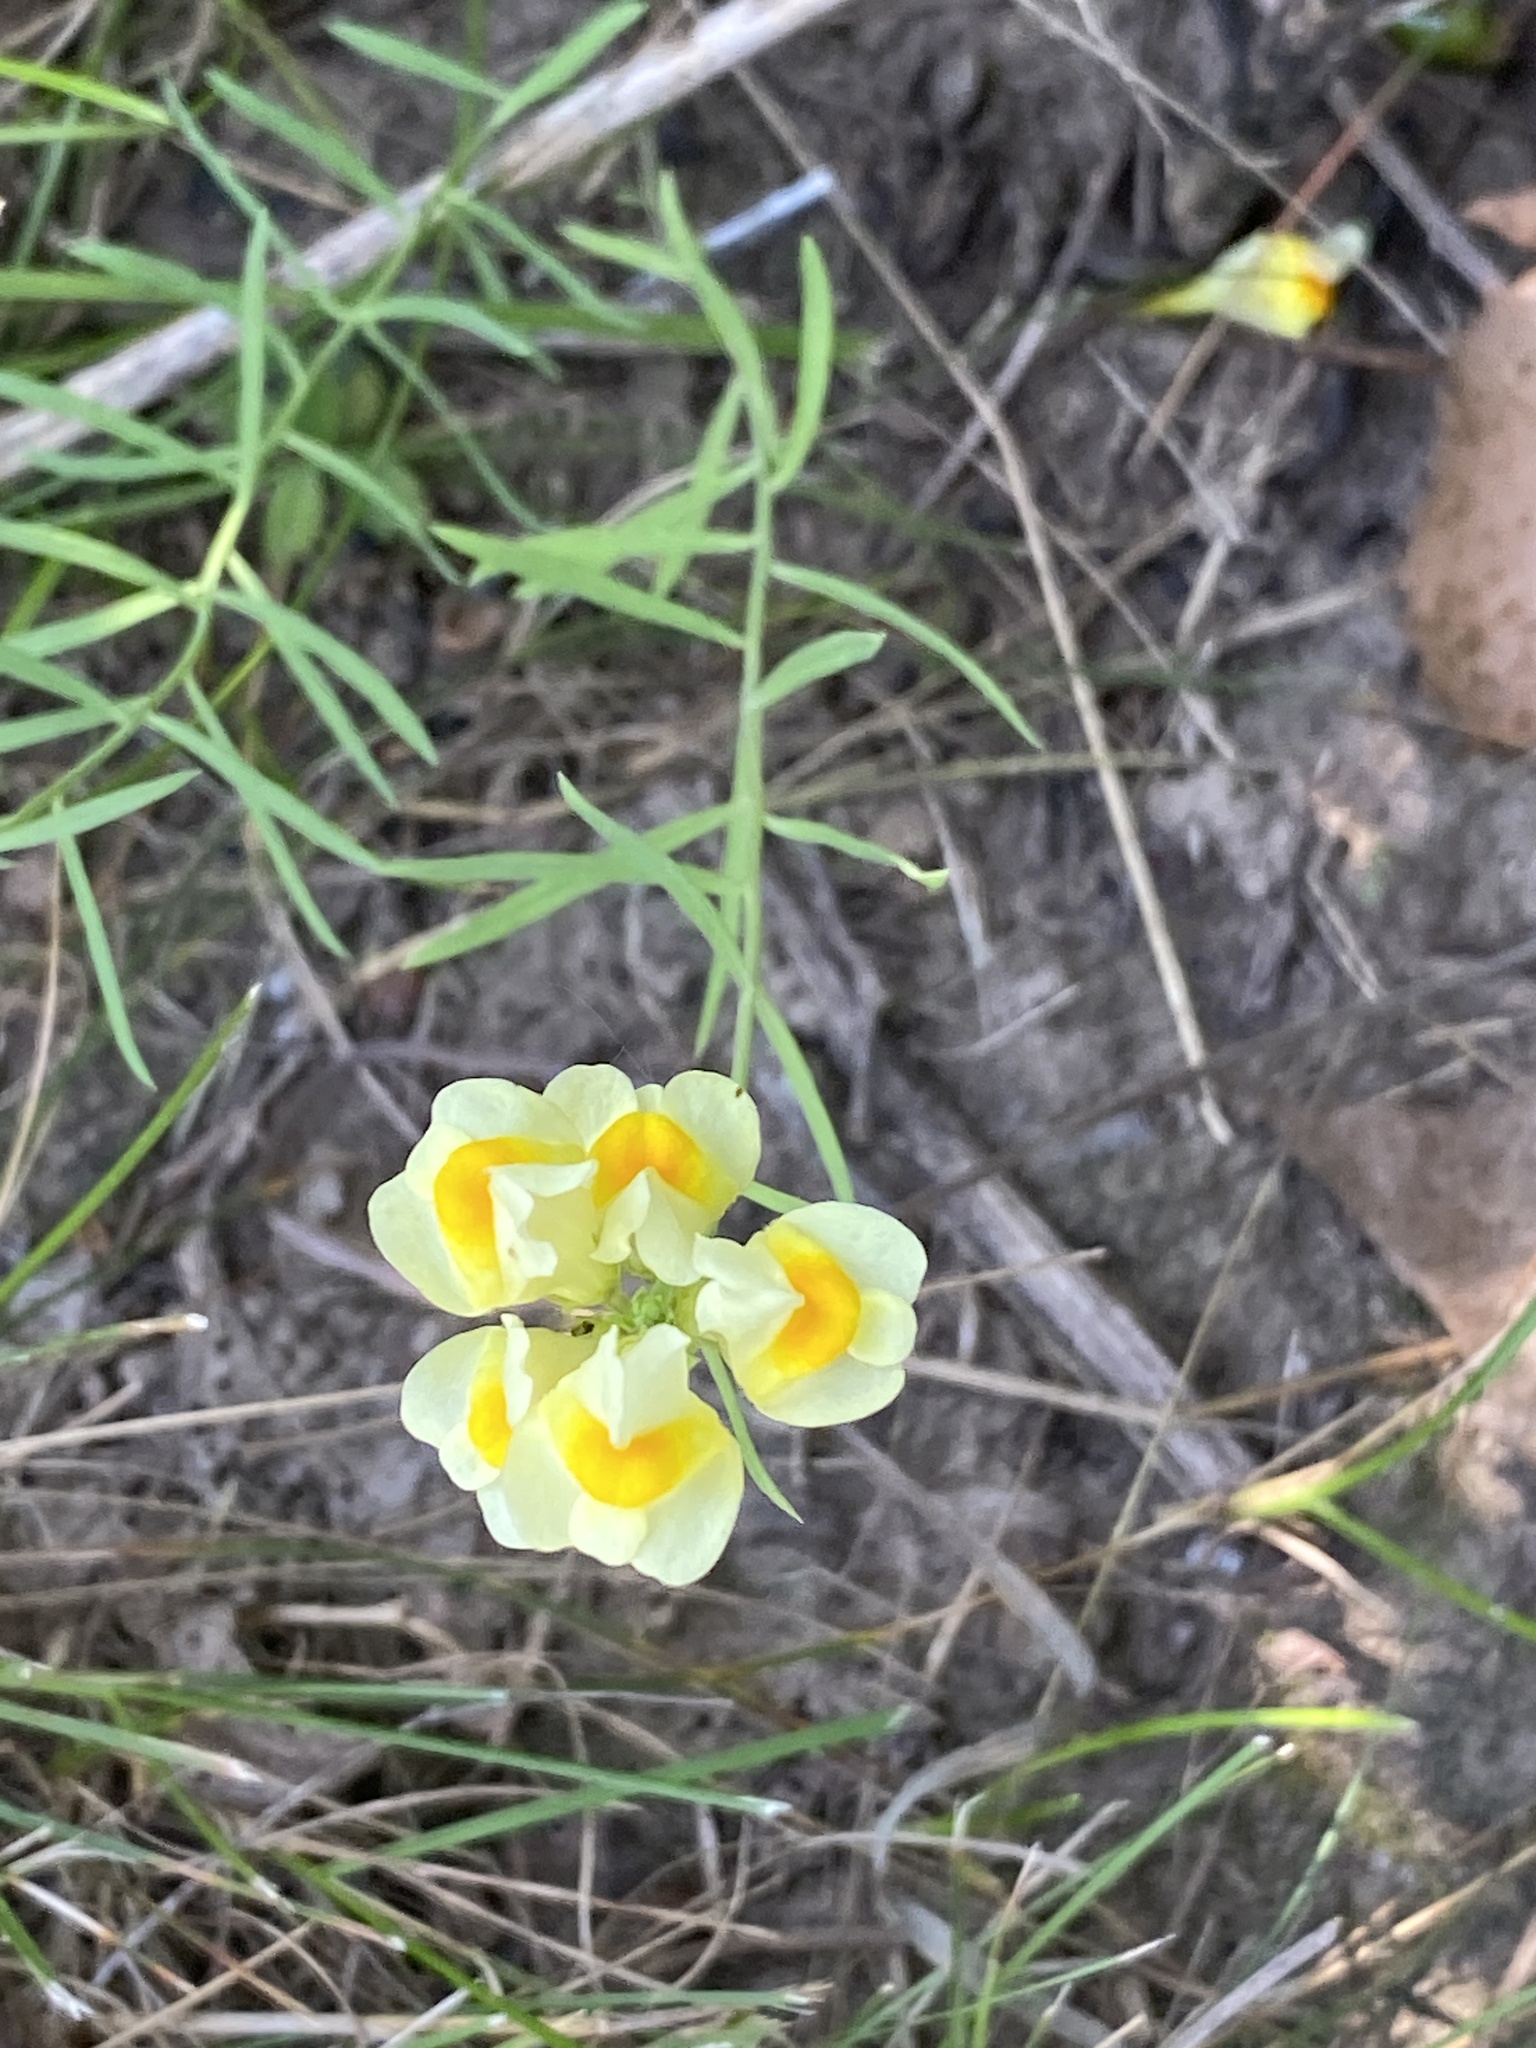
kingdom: Plantae
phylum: Tracheophyta
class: Magnoliopsida
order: Lamiales
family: Plantaginaceae
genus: Linaria
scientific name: Linaria vulgaris
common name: Butter and eggs
